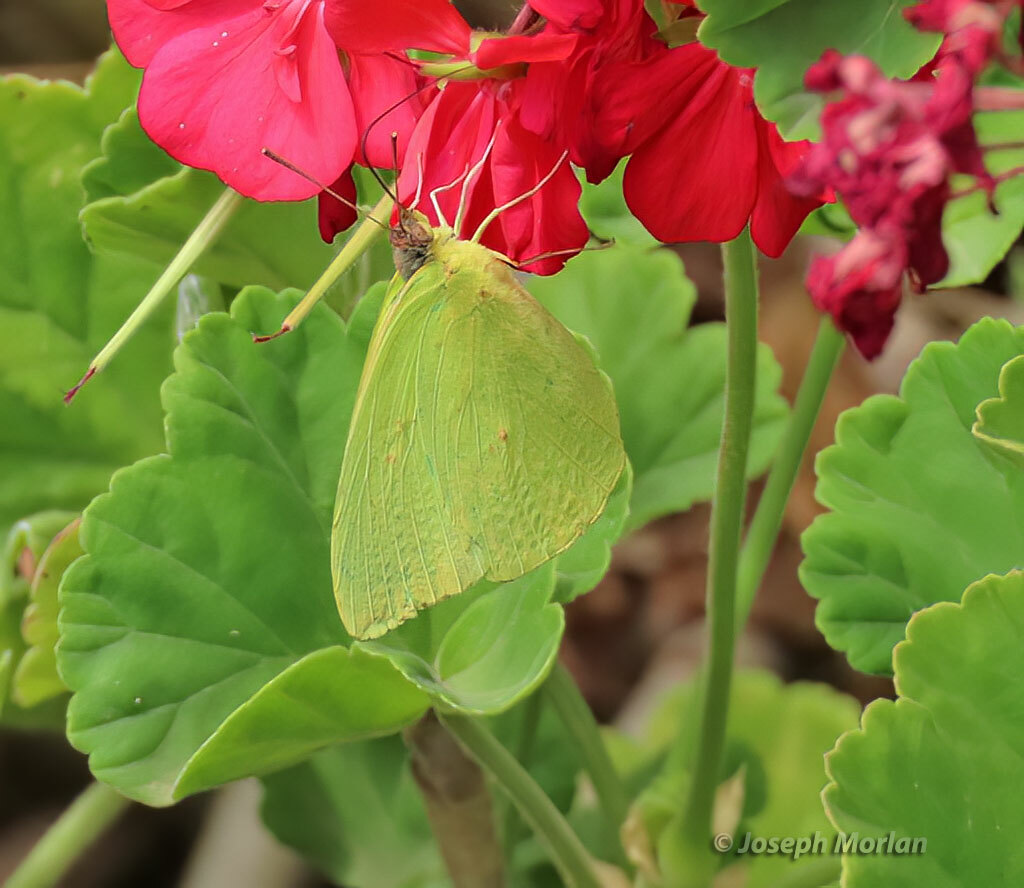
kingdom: Animalia
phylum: Arthropoda
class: Insecta
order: Lepidoptera
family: Pieridae
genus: Phoebis
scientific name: Phoebis sennae
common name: Cloudless sulphur
